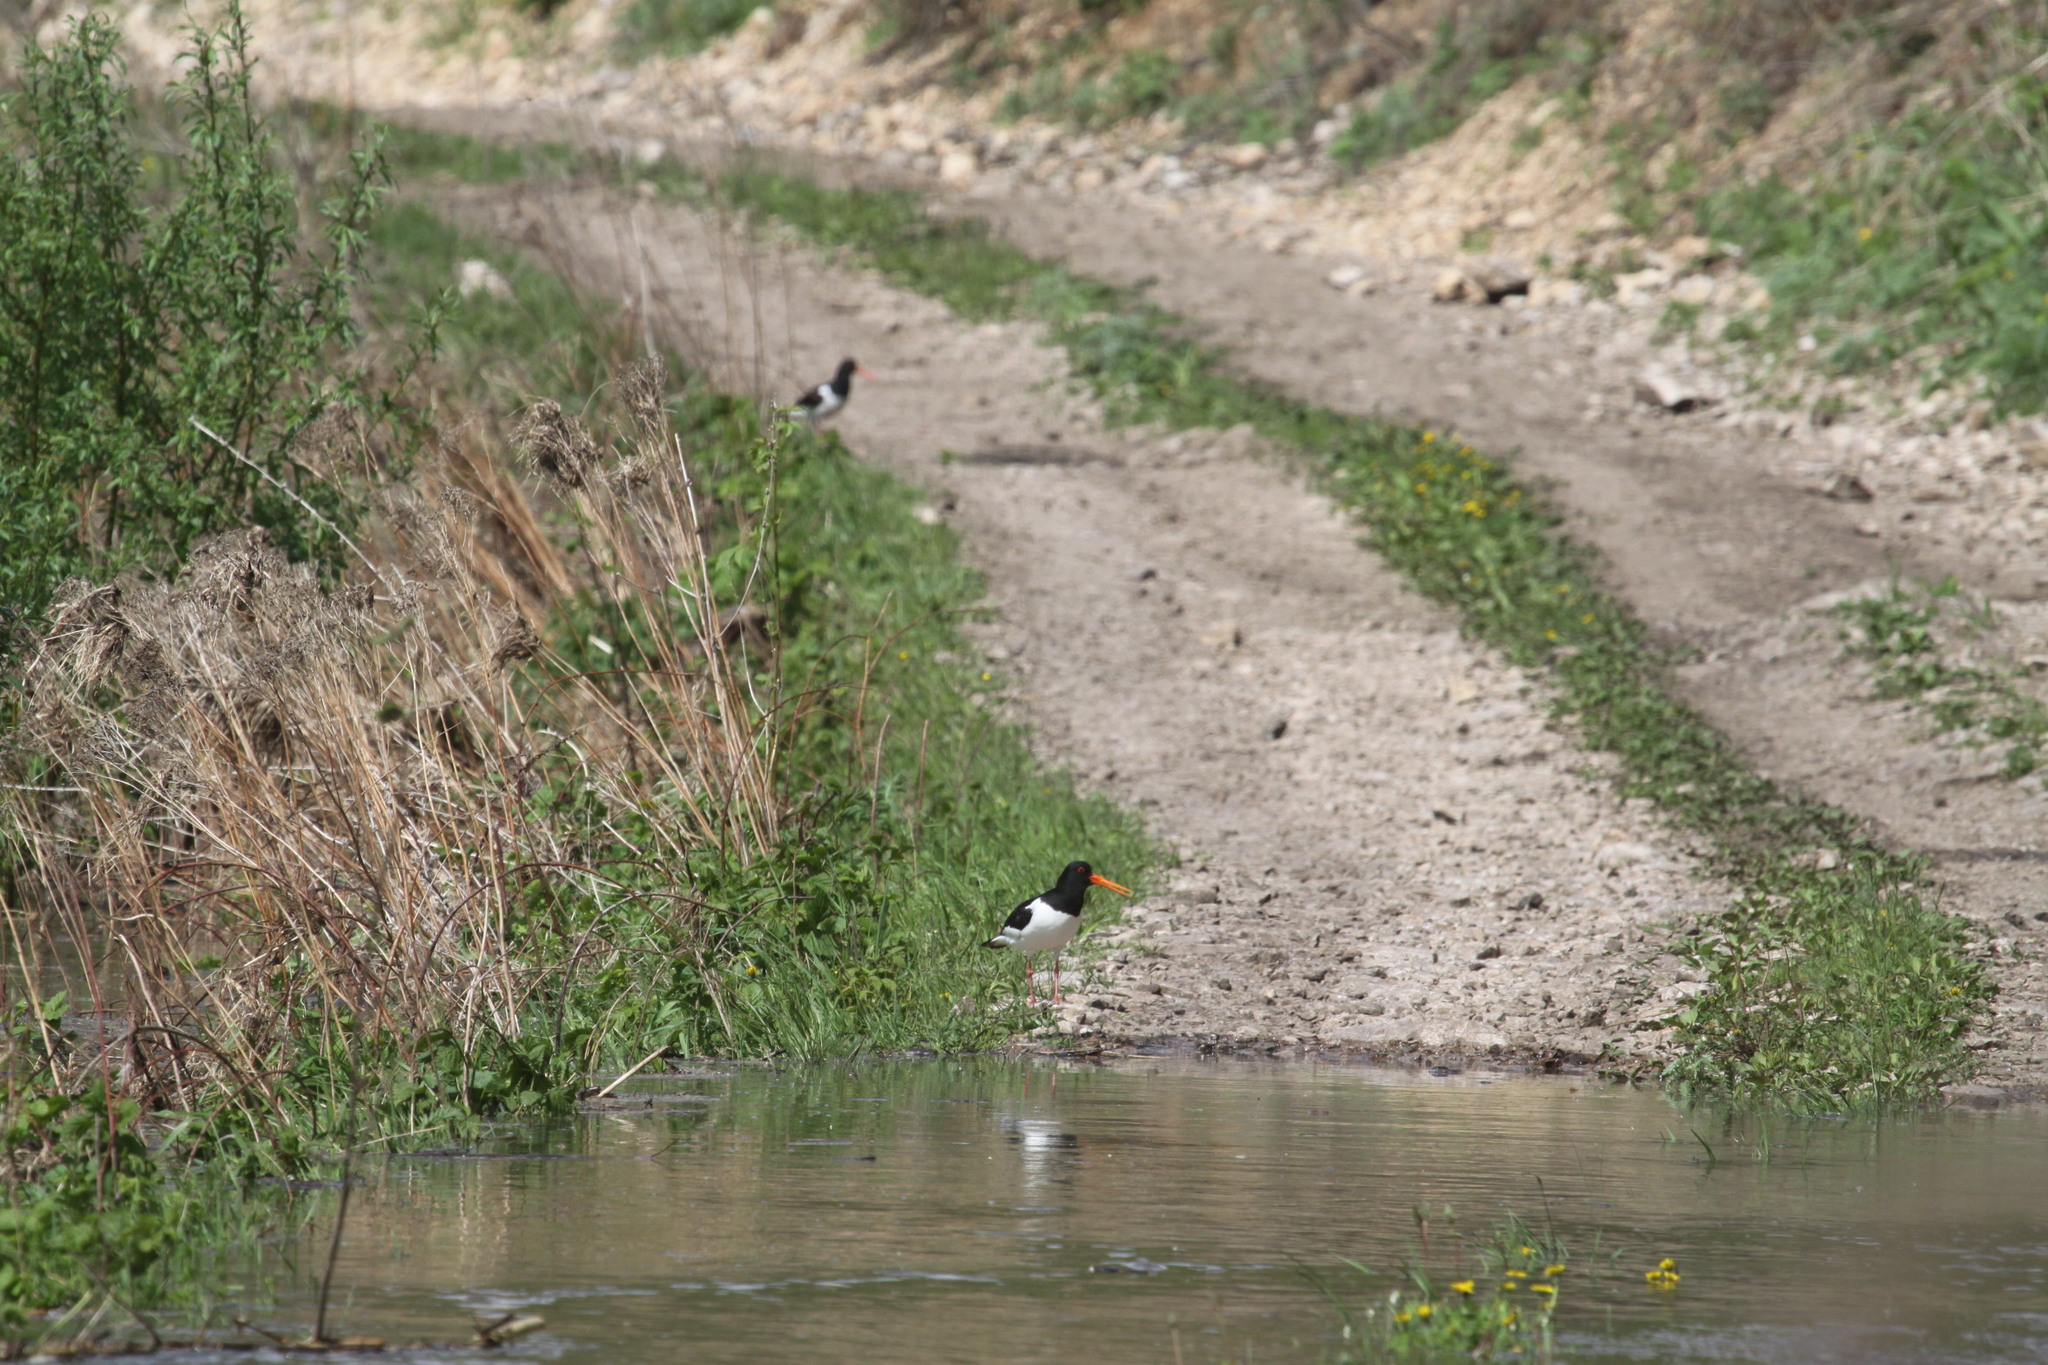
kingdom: Animalia
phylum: Chordata
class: Aves
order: Charadriiformes
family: Haematopodidae
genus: Haematopus
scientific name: Haematopus ostralegus
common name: Eurasian oystercatcher
